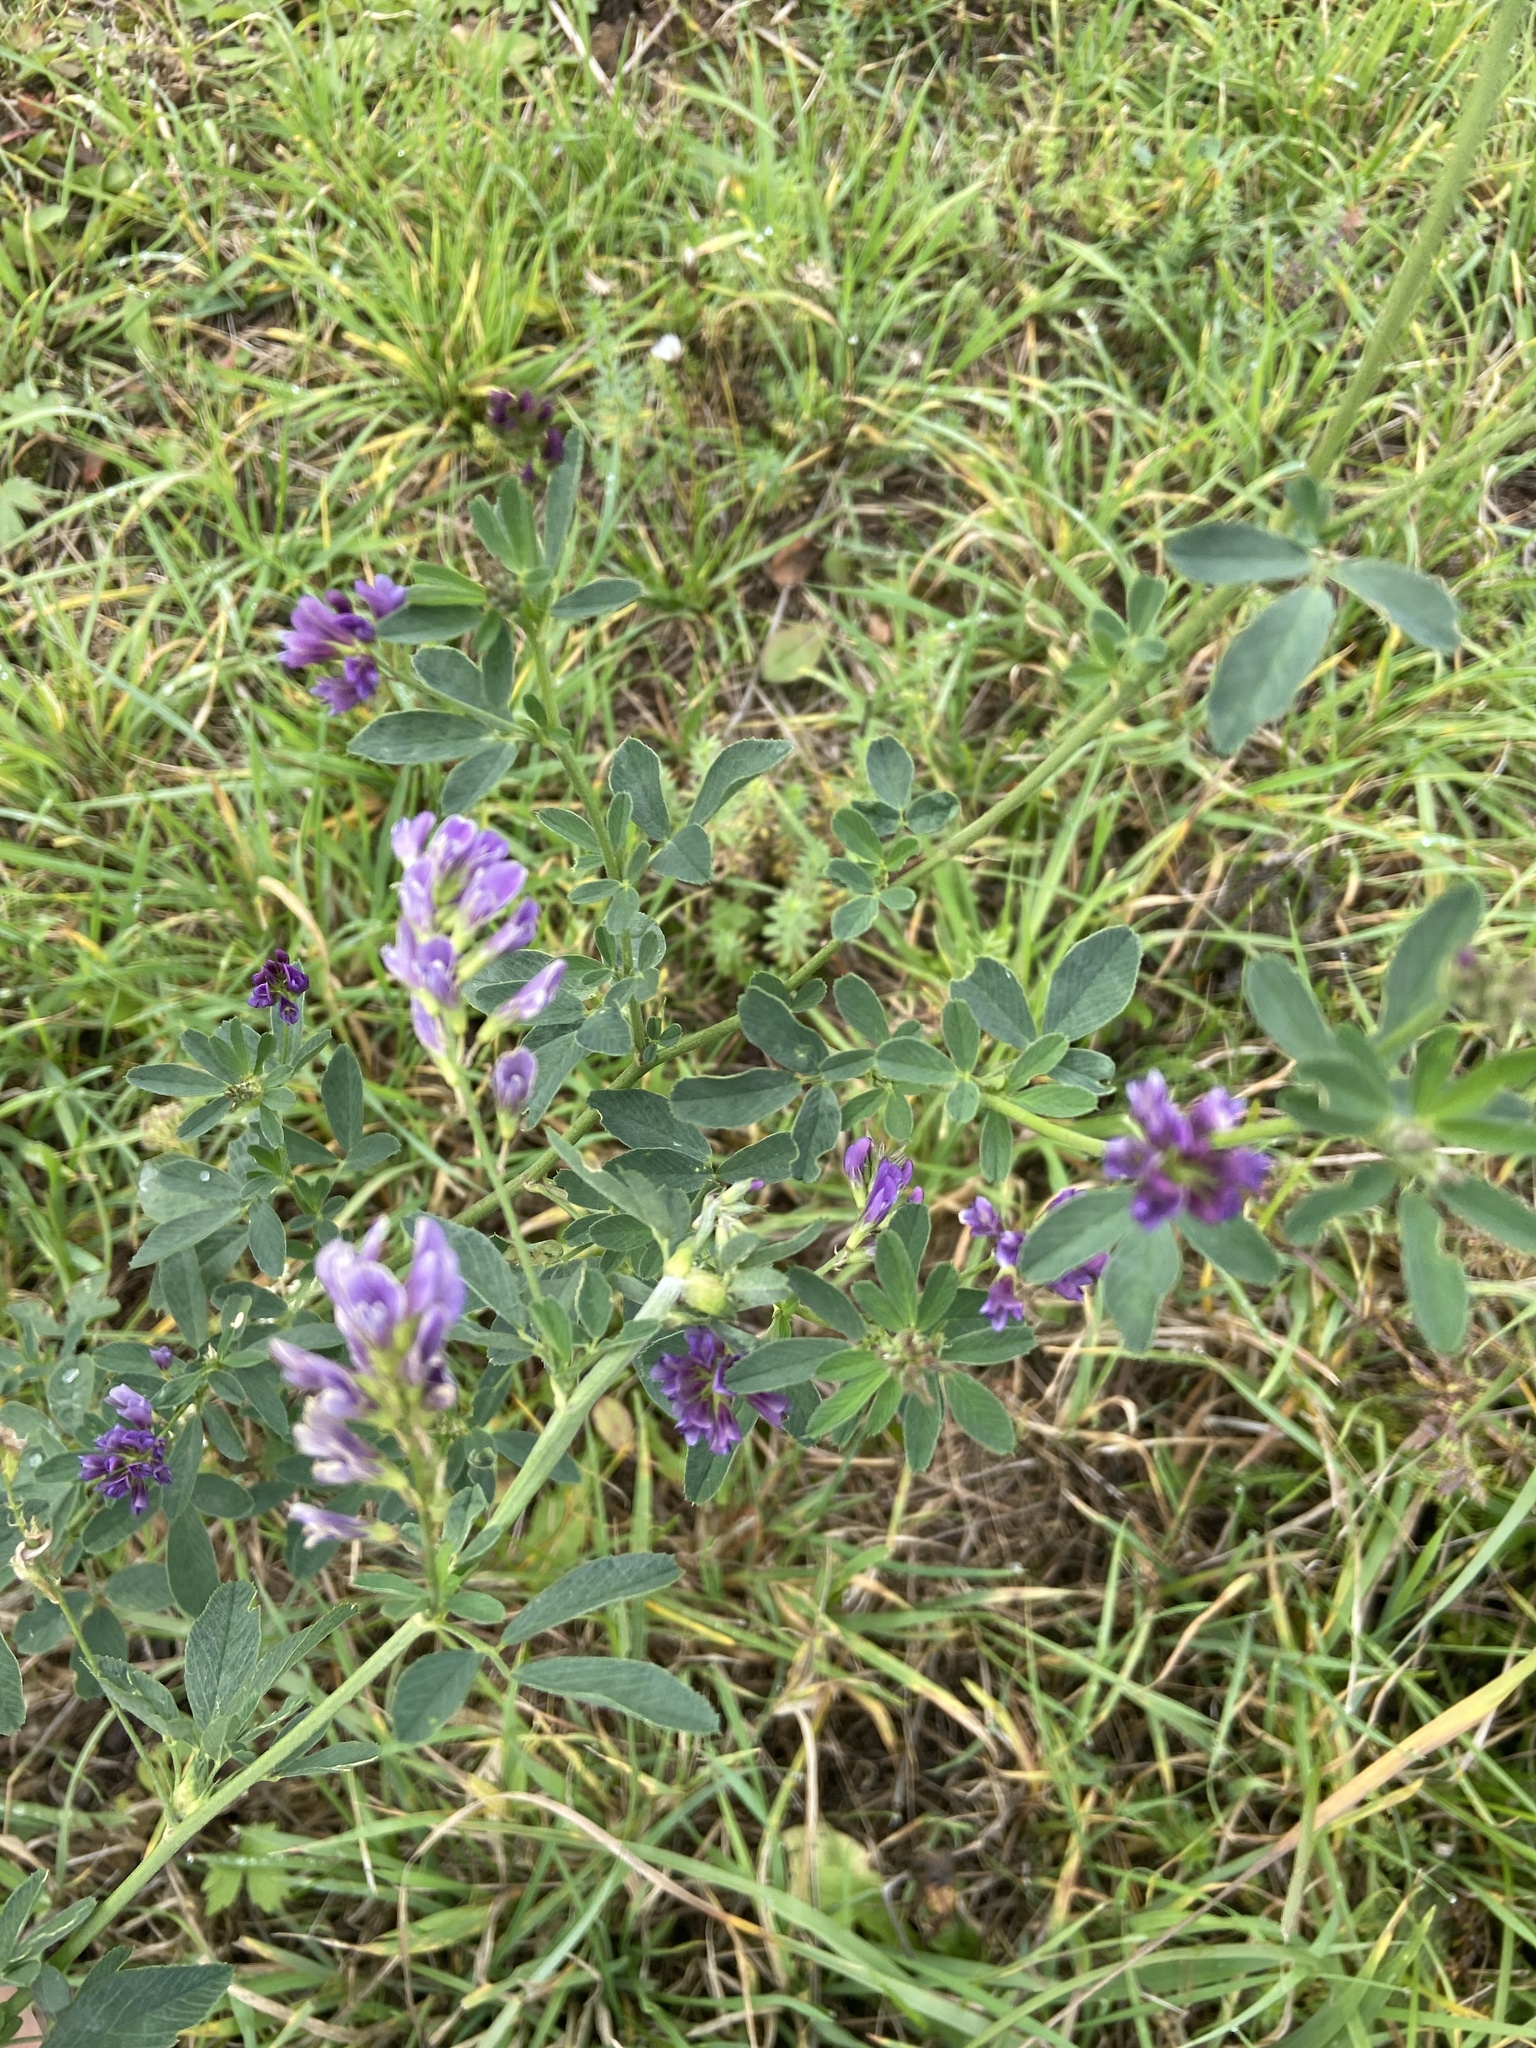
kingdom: Plantae
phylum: Tracheophyta
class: Magnoliopsida
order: Fabales
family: Fabaceae
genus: Medicago
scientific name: Medicago sativa
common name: Alfalfa
